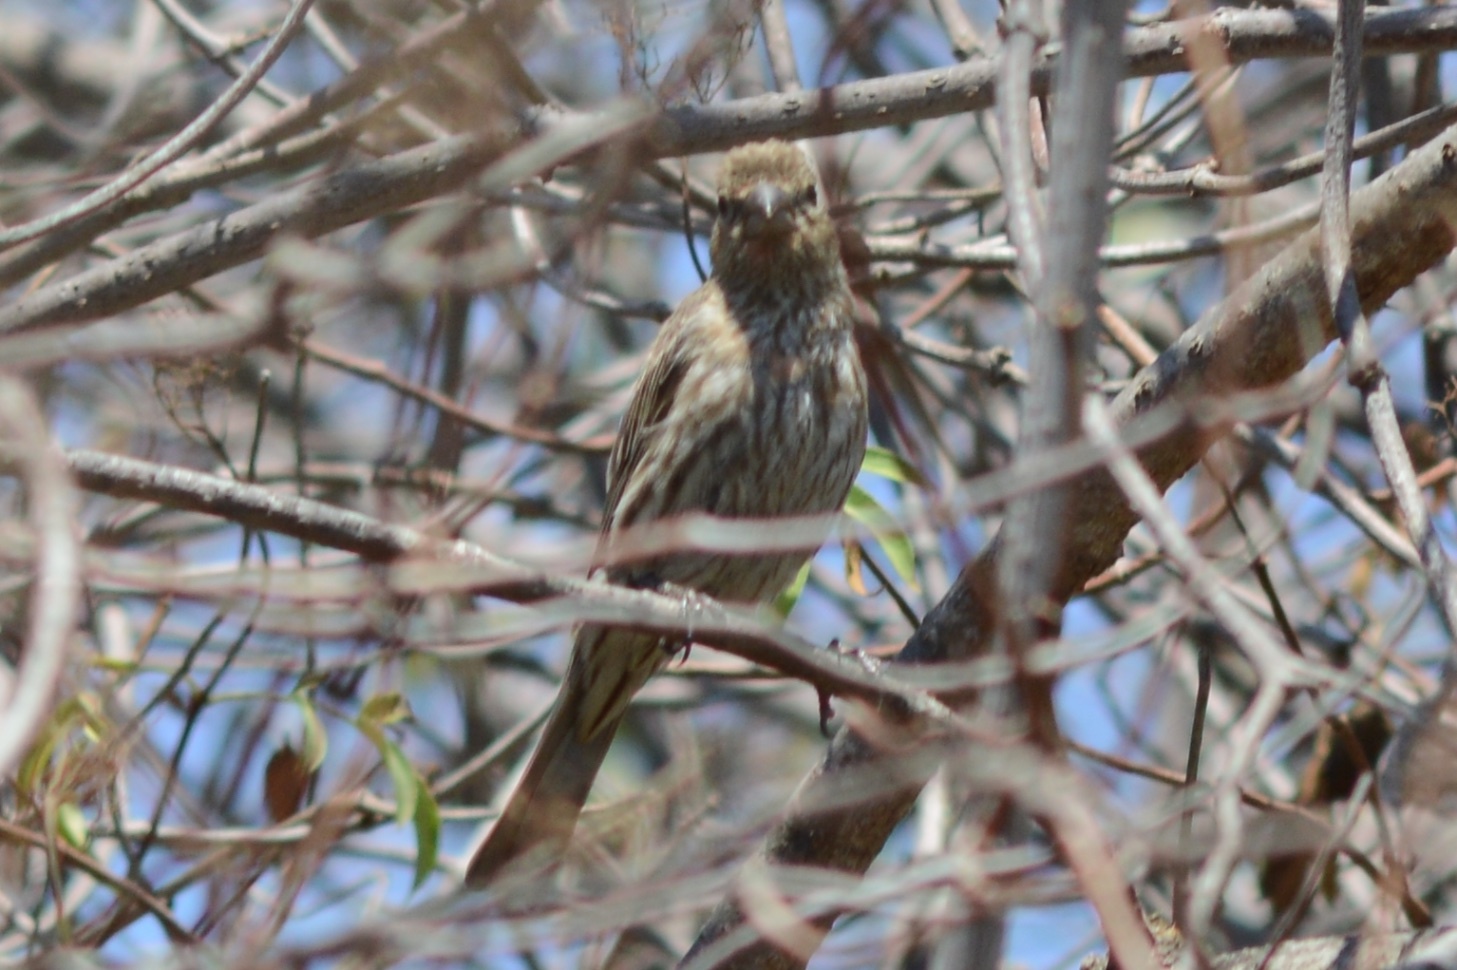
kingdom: Animalia
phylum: Chordata
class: Aves
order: Passeriformes
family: Fringillidae
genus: Haemorhous
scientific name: Haemorhous mexicanus
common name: House finch
